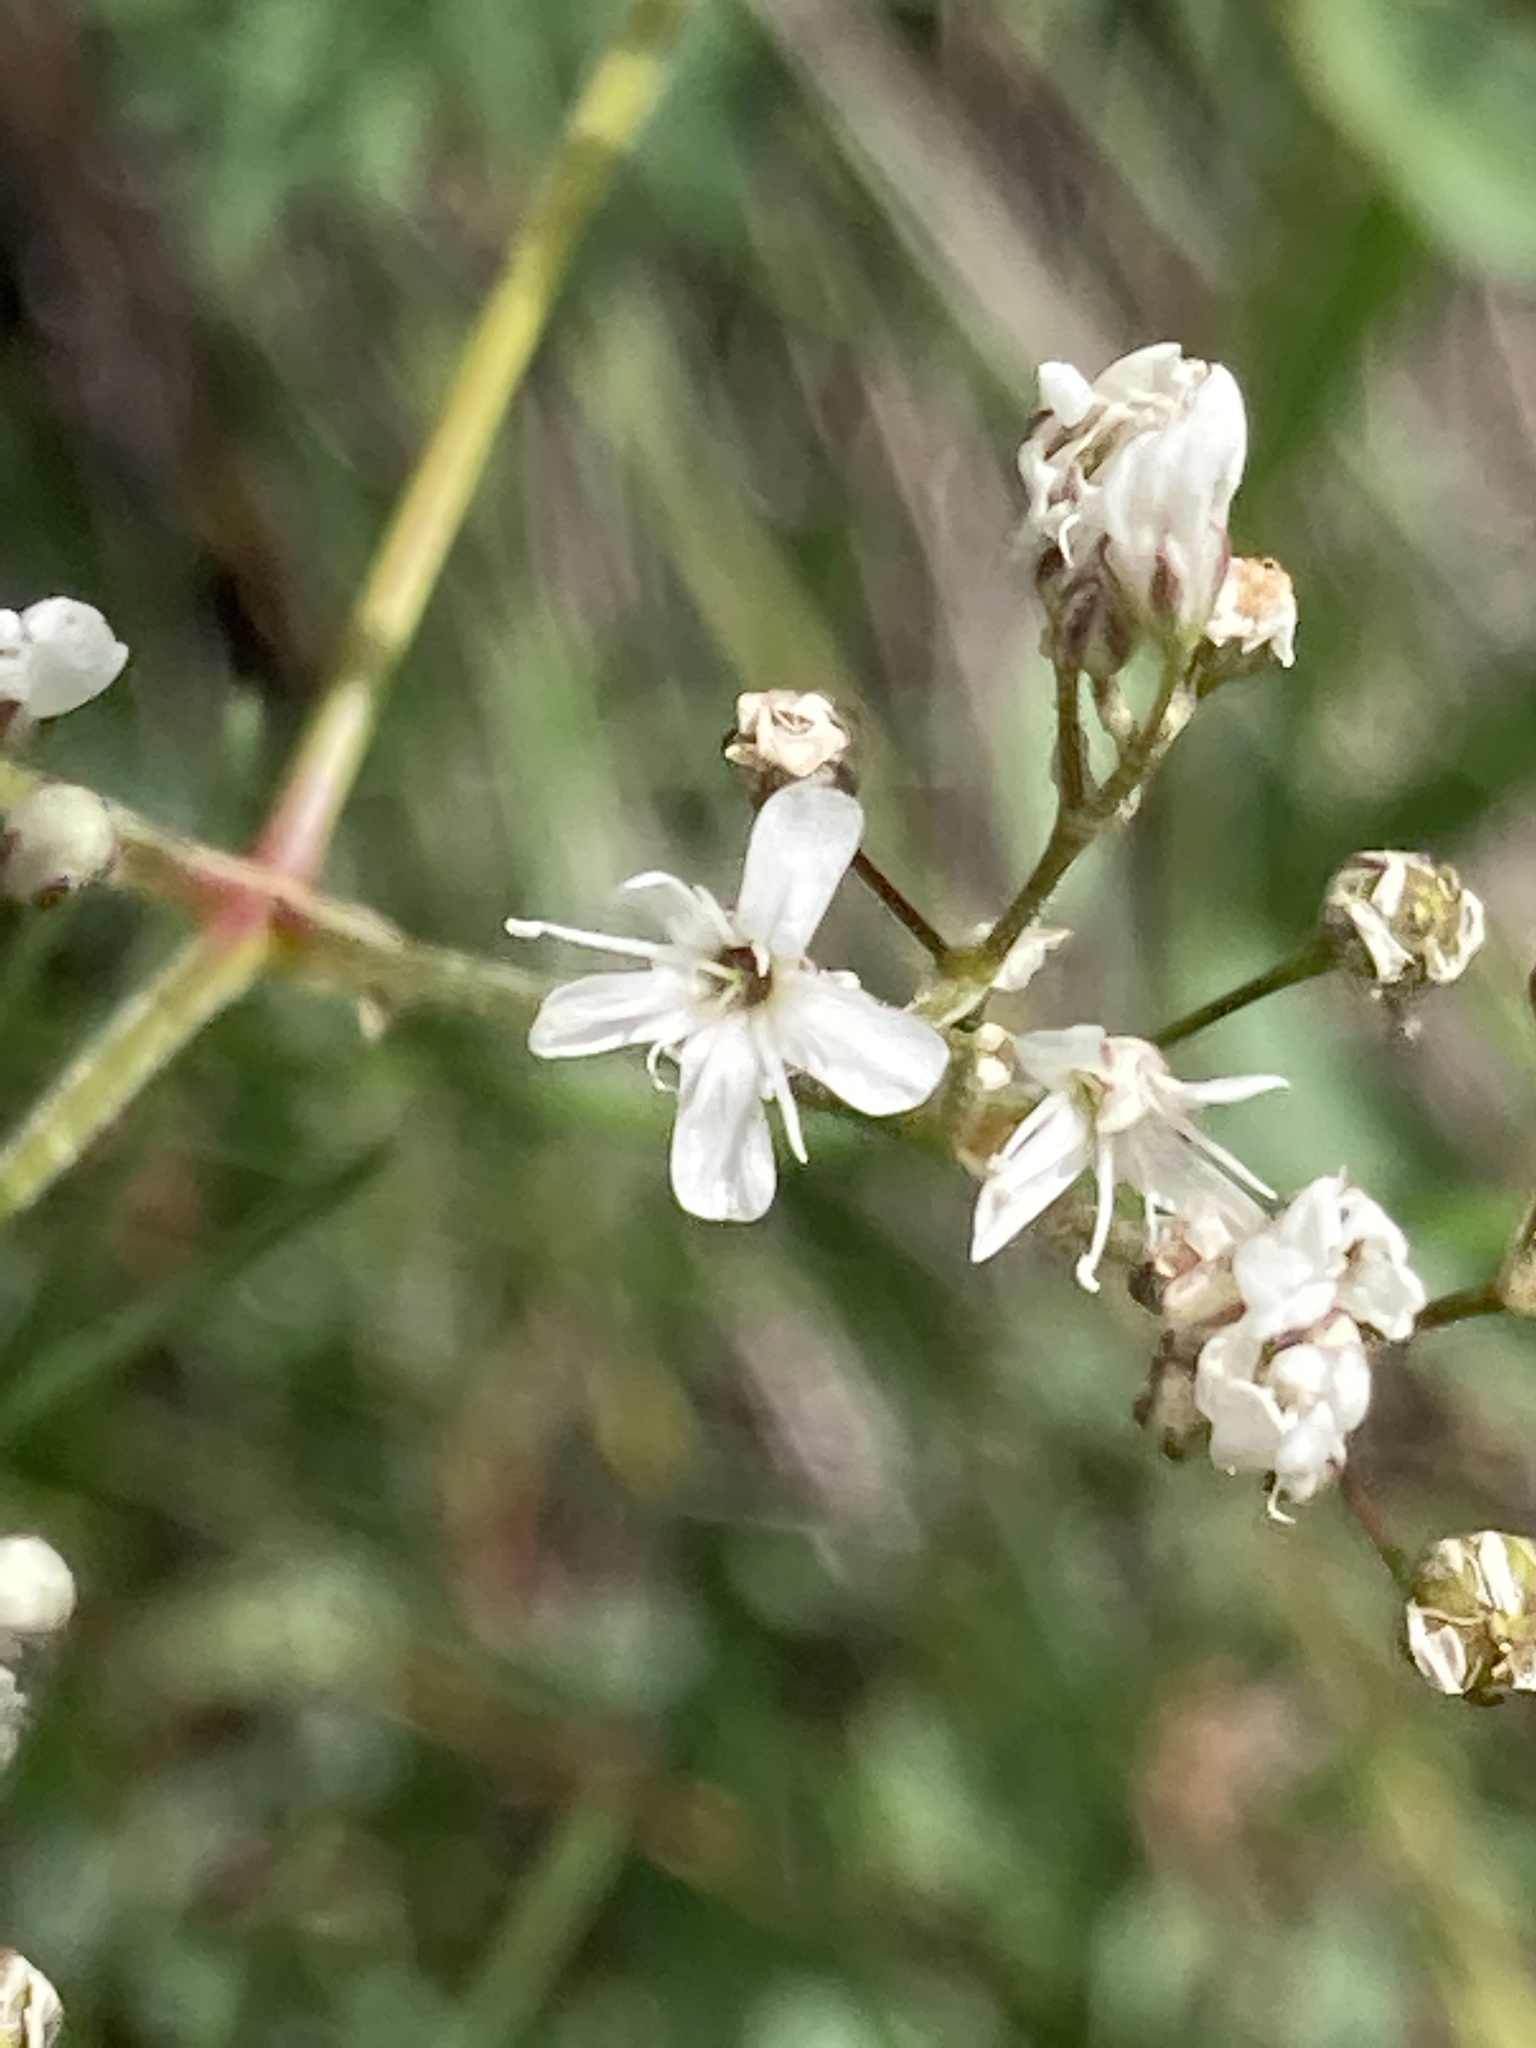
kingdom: Plantae
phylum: Tracheophyta
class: Magnoliopsida
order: Caryophyllales
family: Caryophyllaceae
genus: Gypsophila
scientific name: Gypsophila altissima
